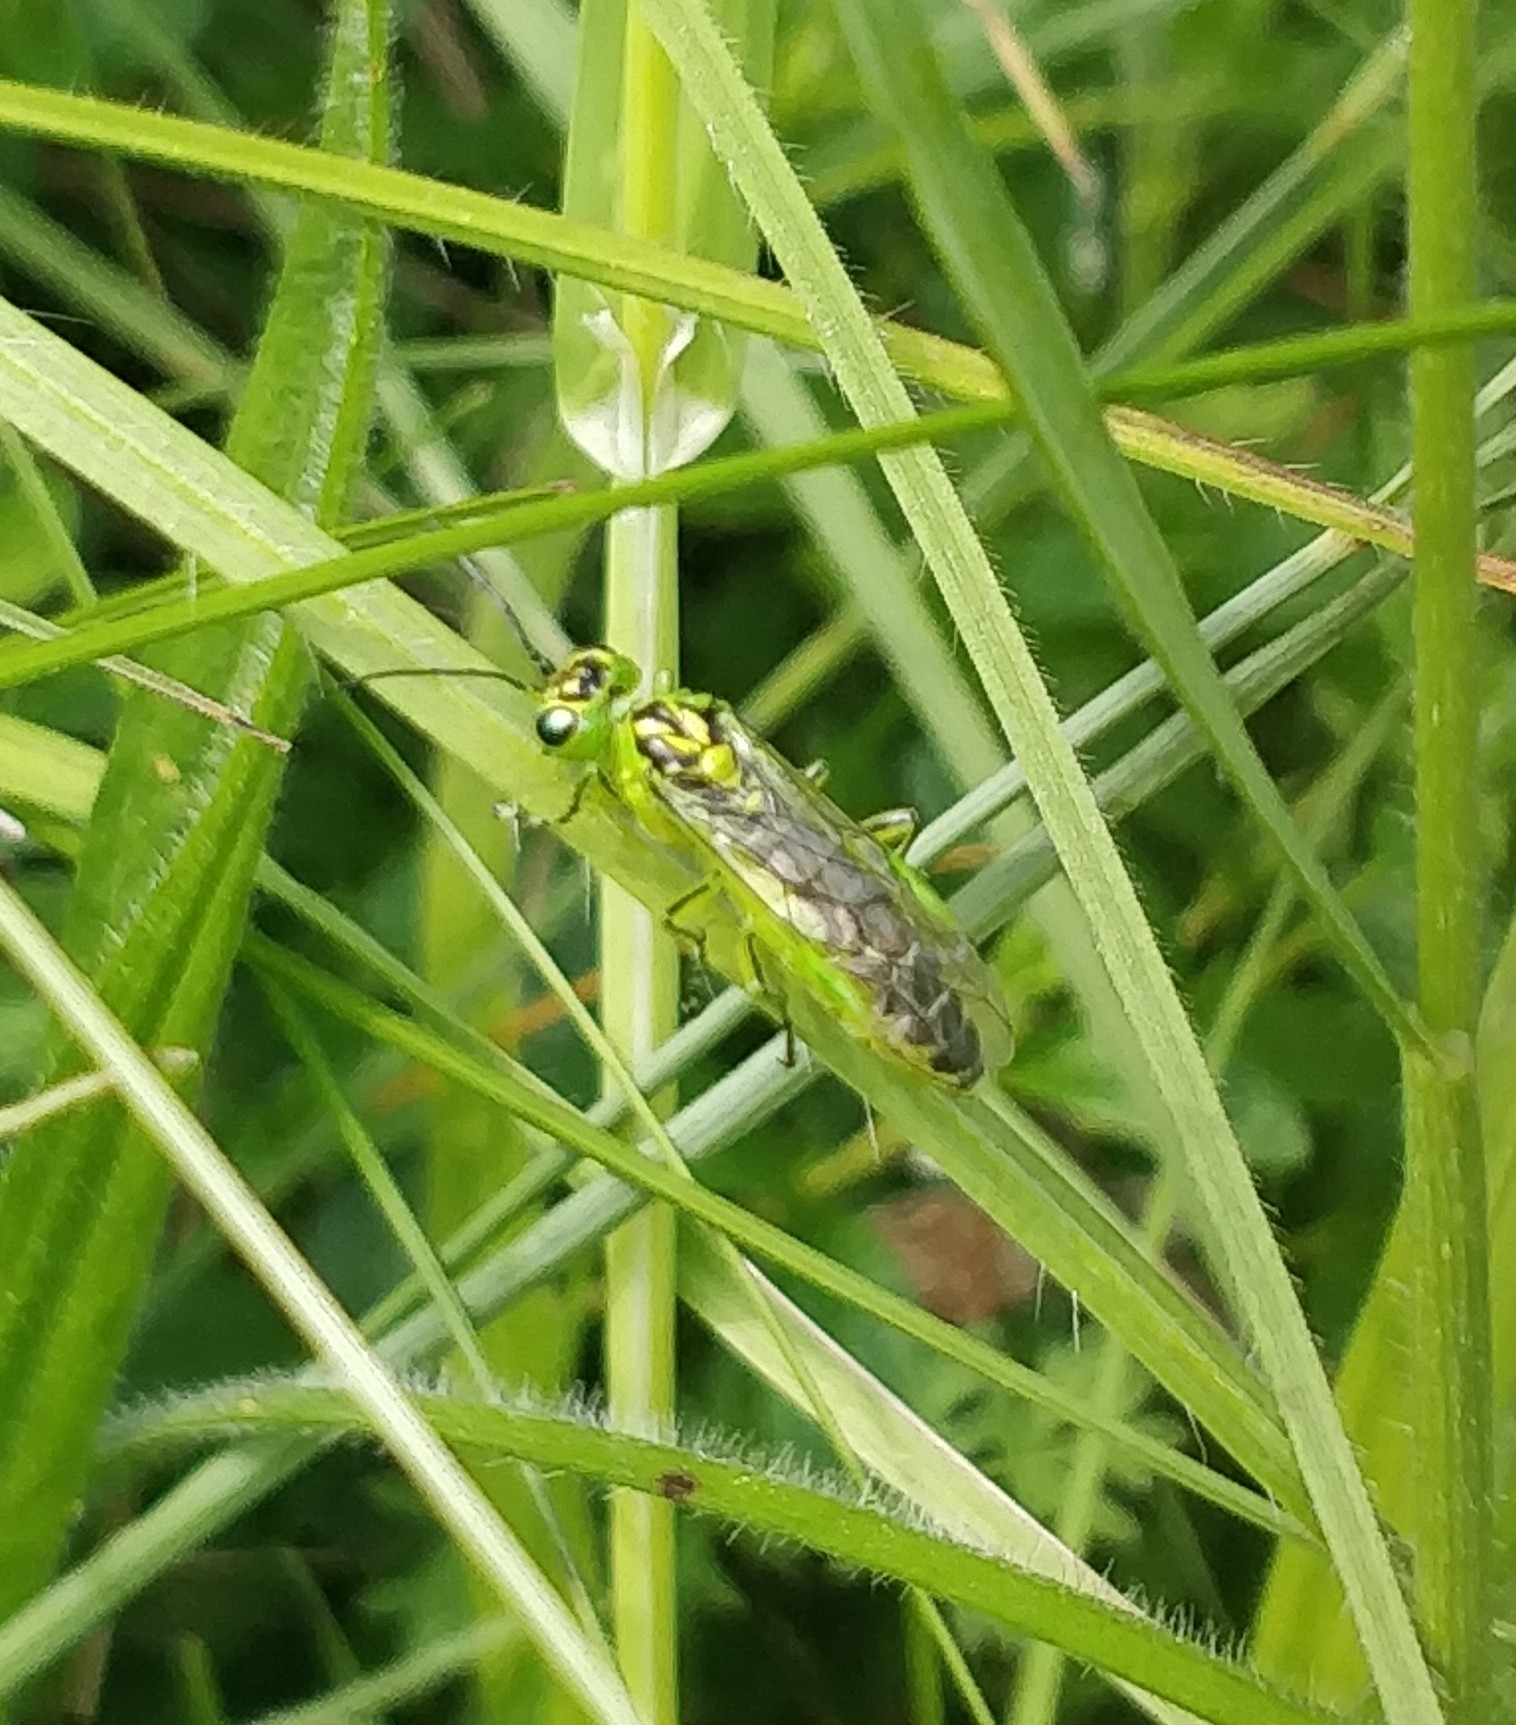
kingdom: Animalia
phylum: Arthropoda
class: Insecta
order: Hymenoptera
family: Tenthredinidae
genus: Rhogogaster
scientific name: Rhogogaster chlorosoma
